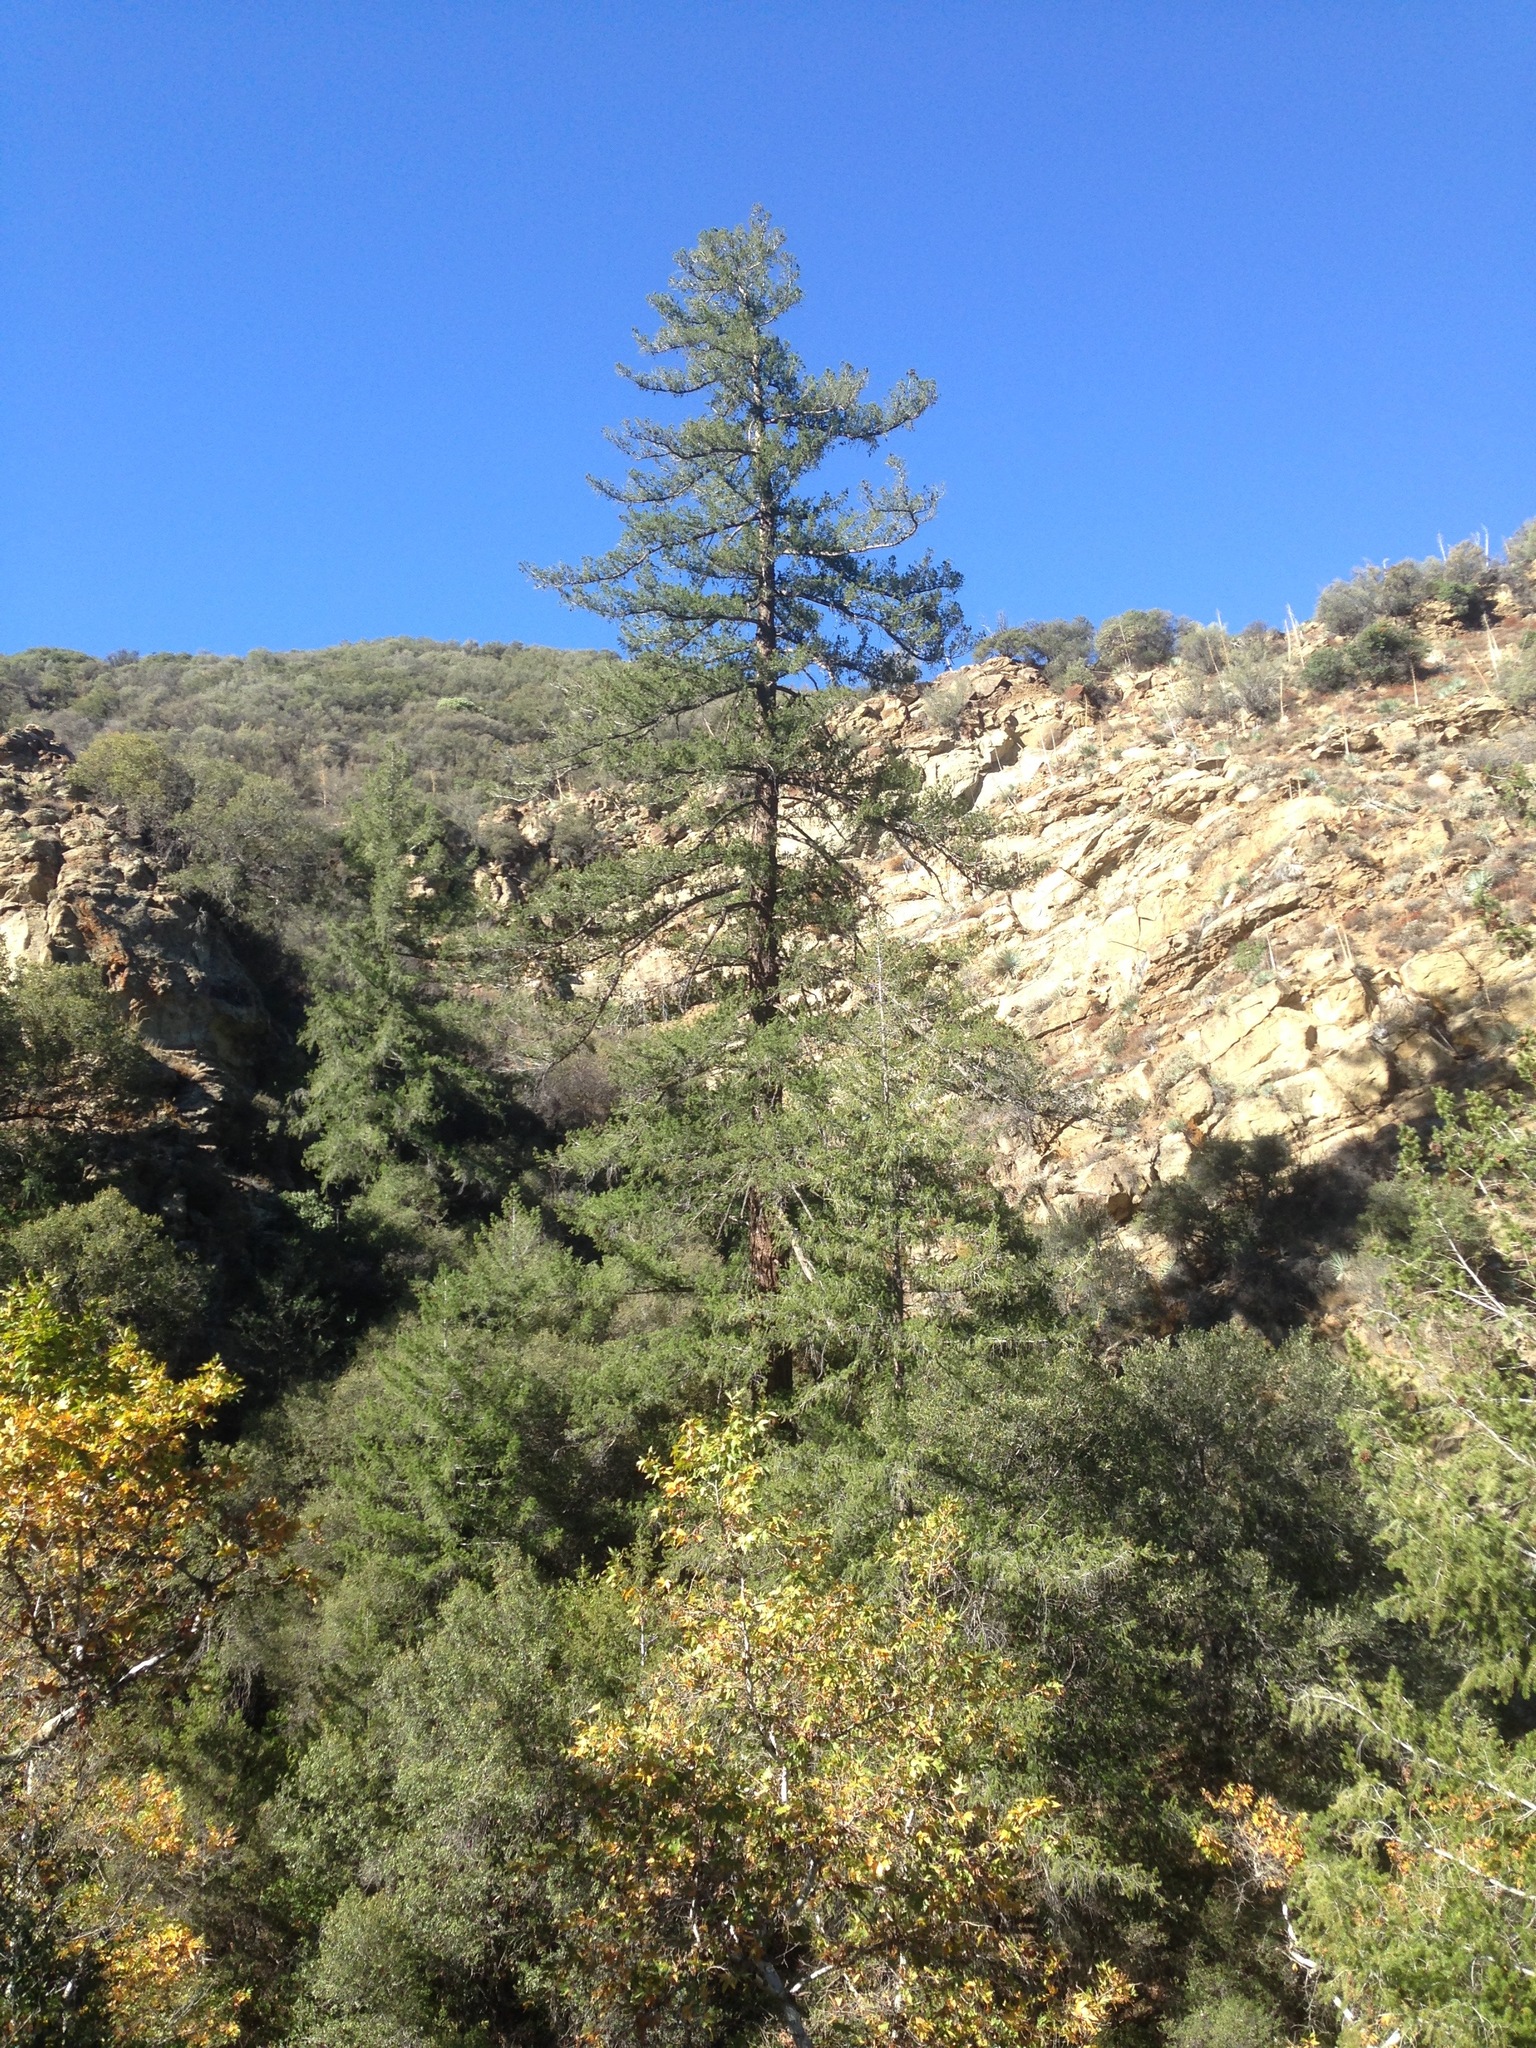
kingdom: Plantae
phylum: Tracheophyta
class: Pinopsida
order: Pinales
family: Pinaceae
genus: Pseudotsuga
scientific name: Pseudotsuga macrocarpa
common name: Big-cone douglas-fir
